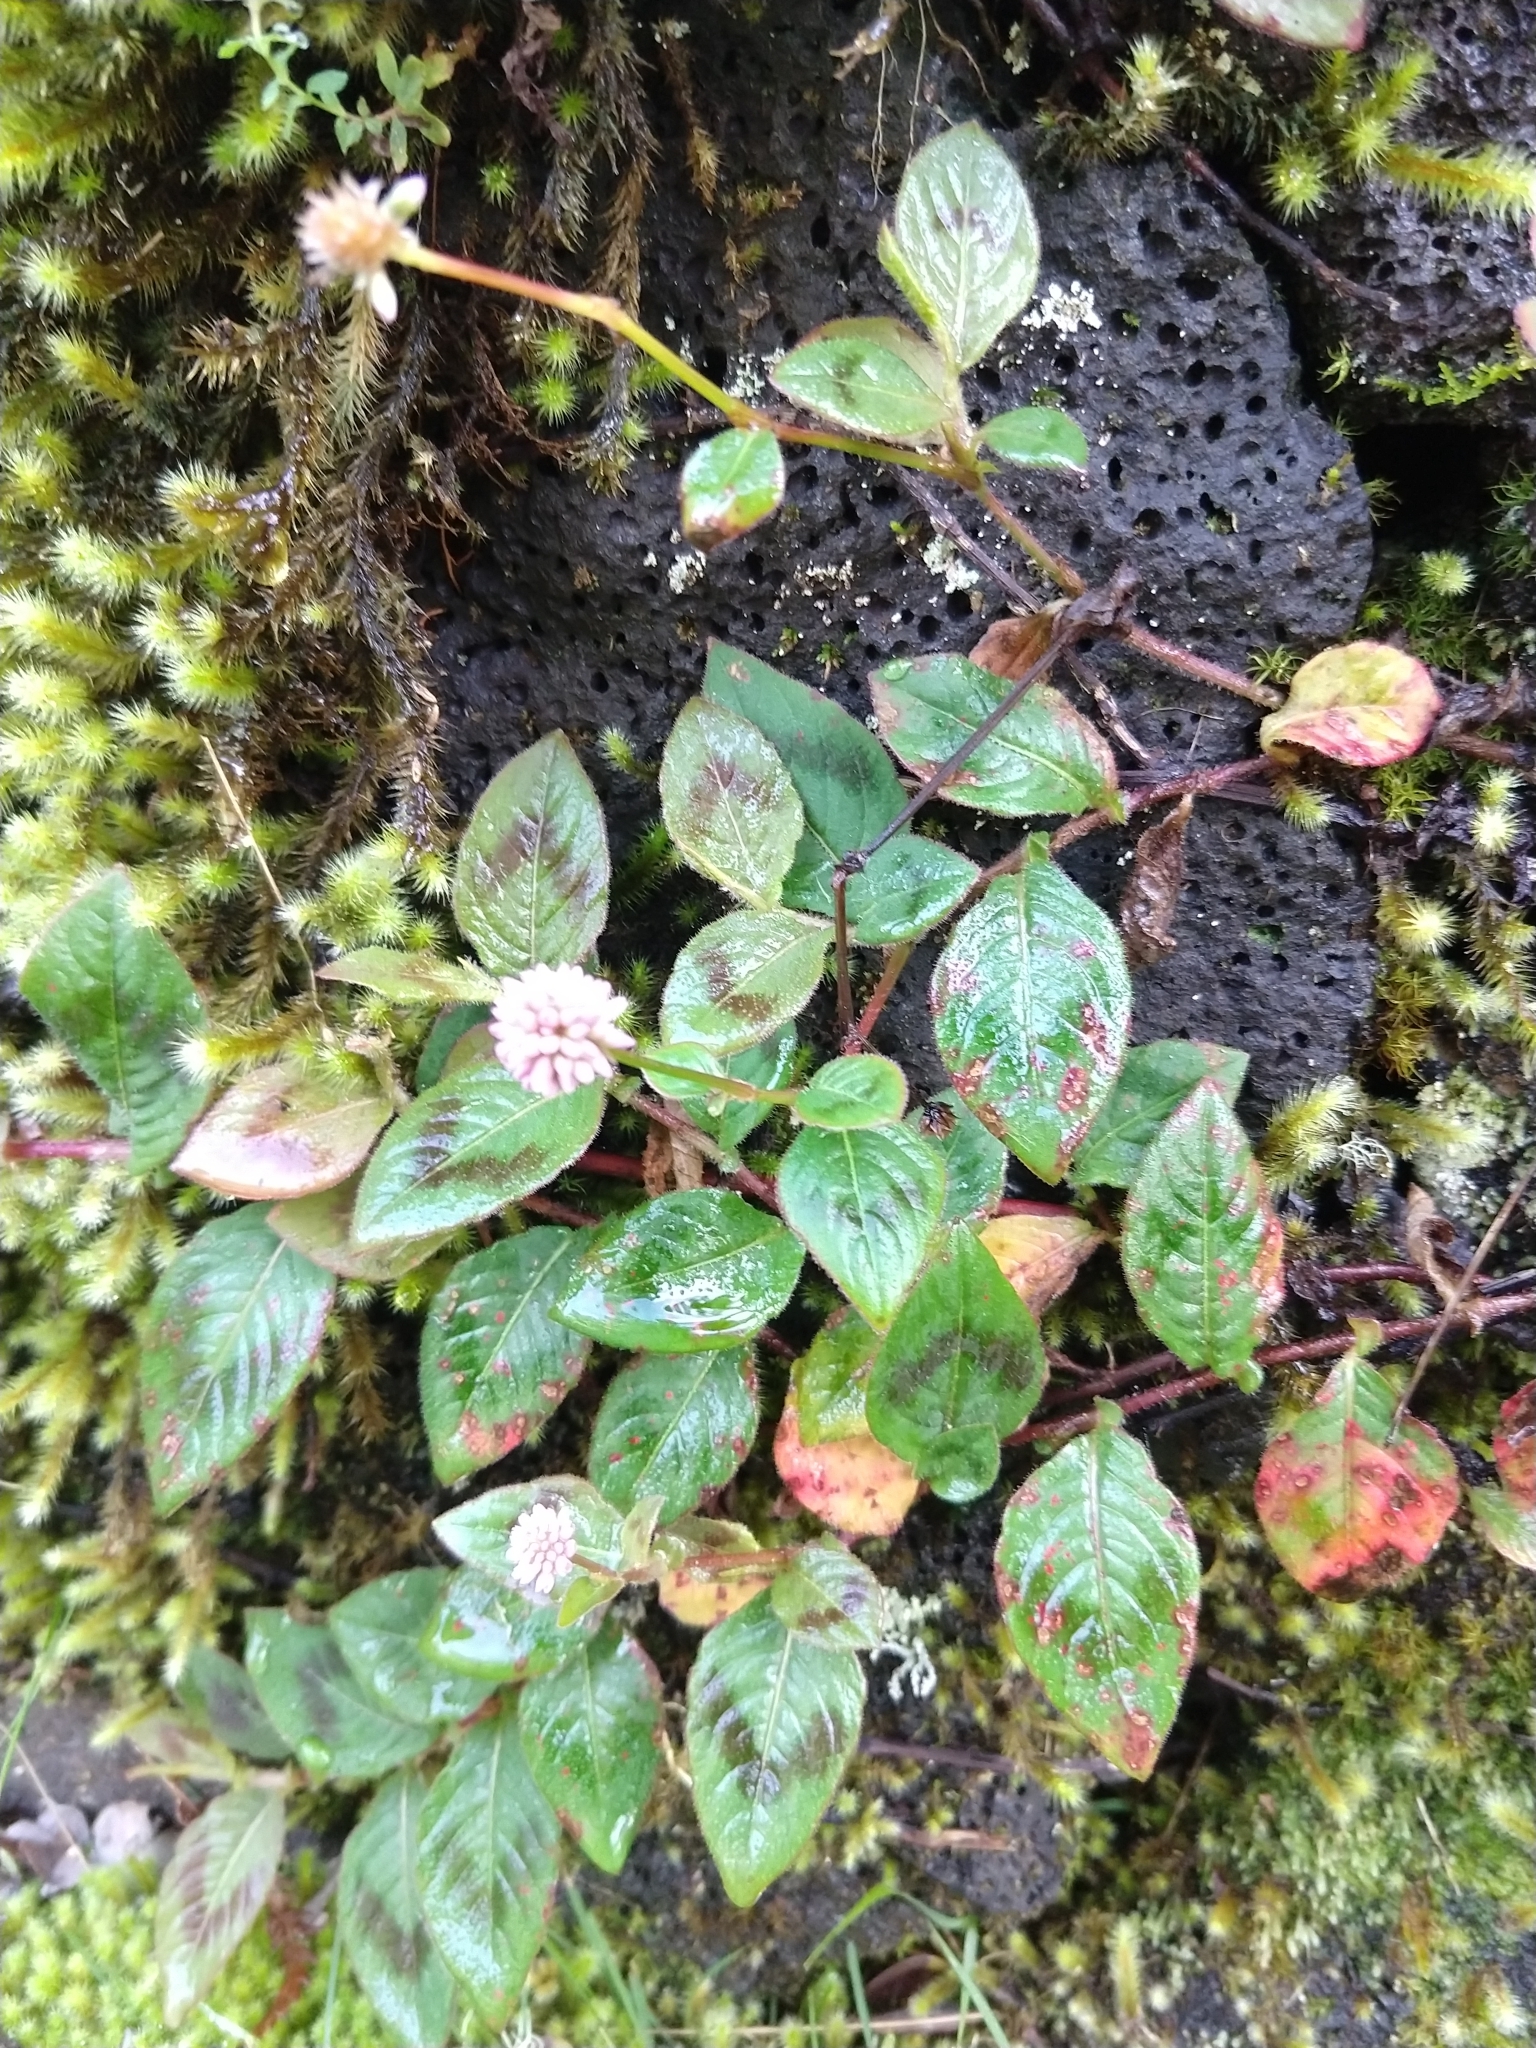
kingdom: Plantae
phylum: Tracheophyta
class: Magnoliopsida
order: Caryophyllales
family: Polygonaceae
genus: Persicaria
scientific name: Persicaria capitata
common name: Pinkhead smartweed
